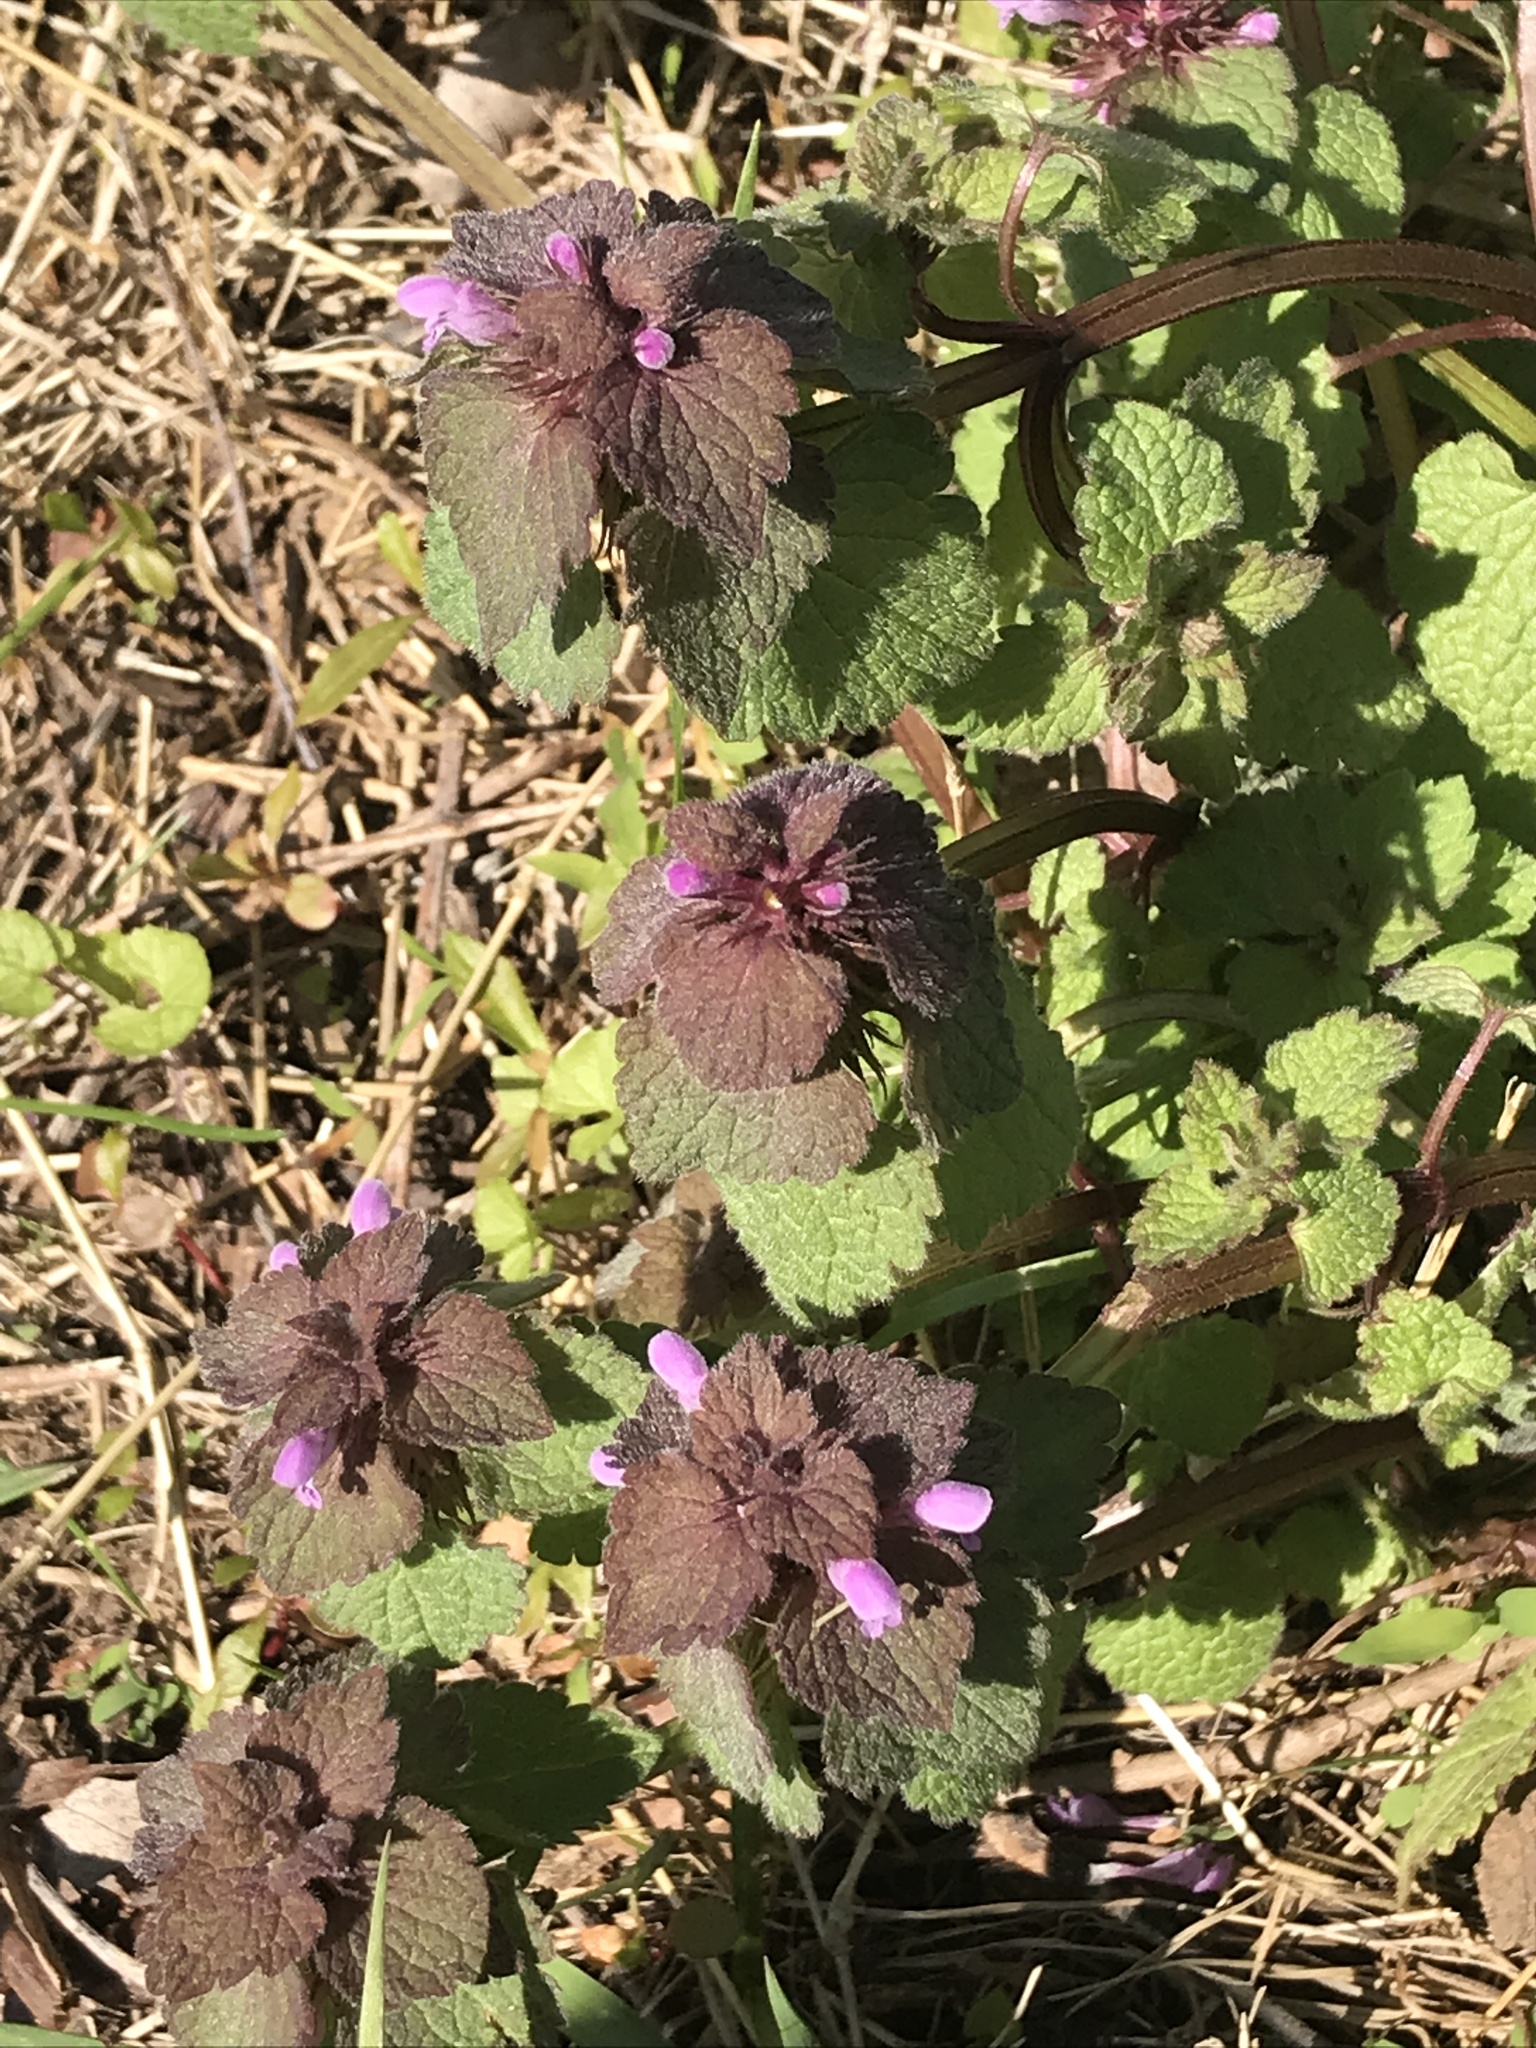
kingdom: Plantae
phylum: Tracheophyta
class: Magnoliopsida
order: Lamiales
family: Lamiaceae
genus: Lamium
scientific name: Lamium purpureum
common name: Red dead-nettle
